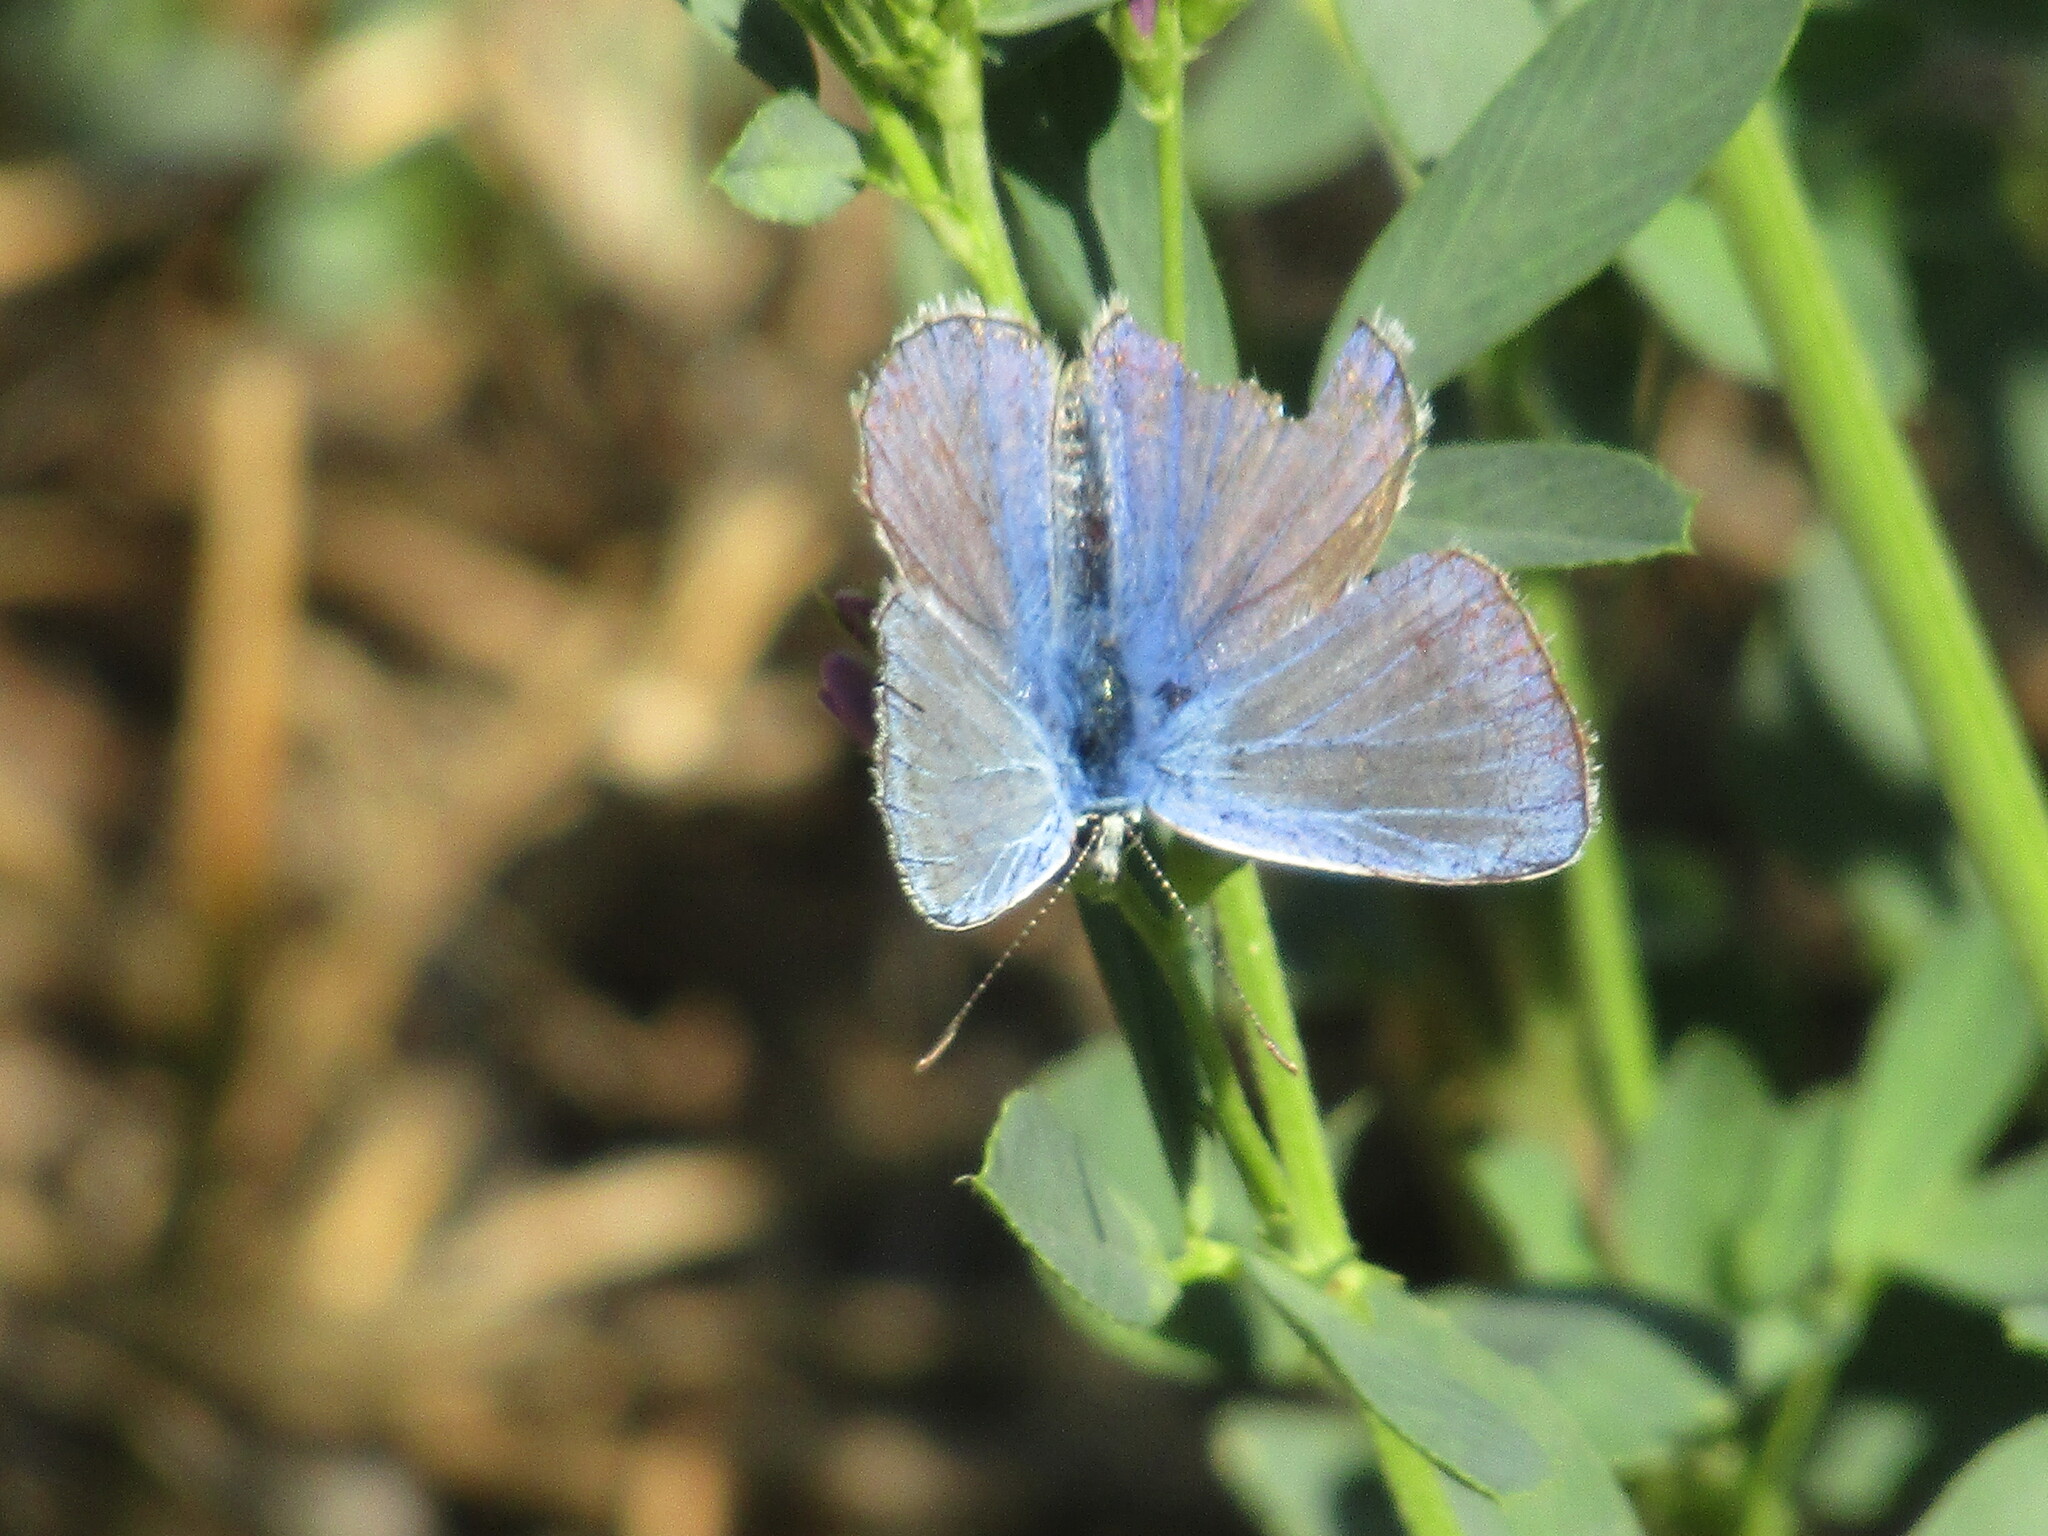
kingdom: Animalia
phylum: Arthropoda
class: Insecta
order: Lepidoptera
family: Lycaenidae
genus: Polyommatus
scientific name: Polyommatus
